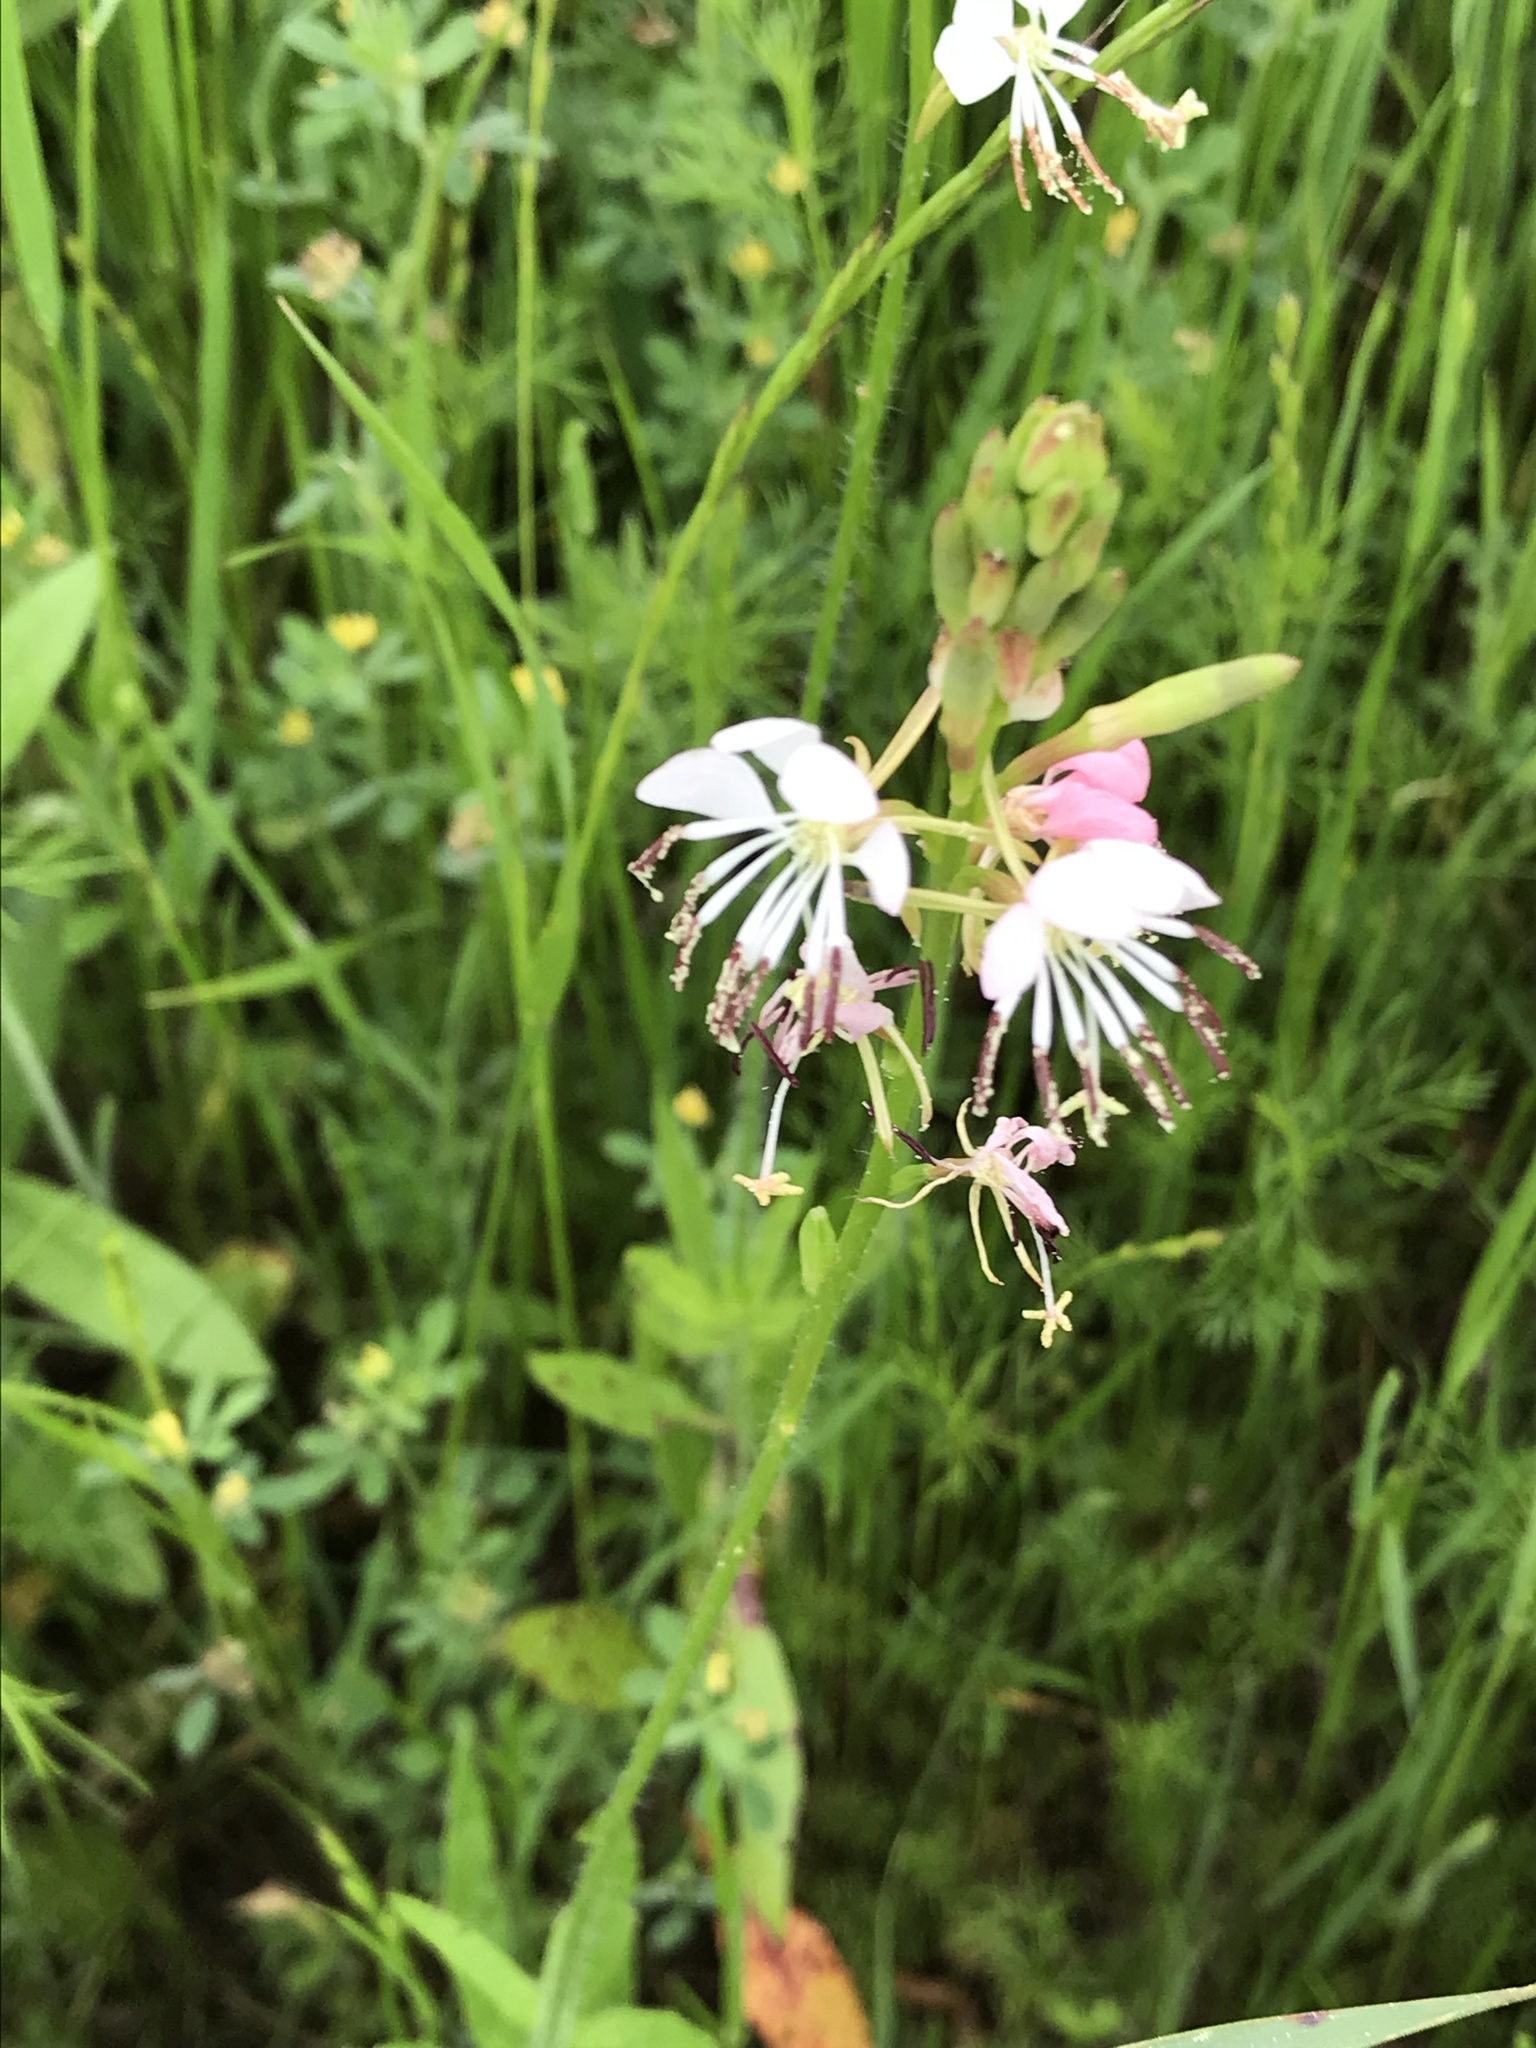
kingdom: Plantae
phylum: Tracheophyta
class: Magnoliopsida
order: Myrtales
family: Onagraceae
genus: Oenothera
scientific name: Oenothera suffulta
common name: Kisses
